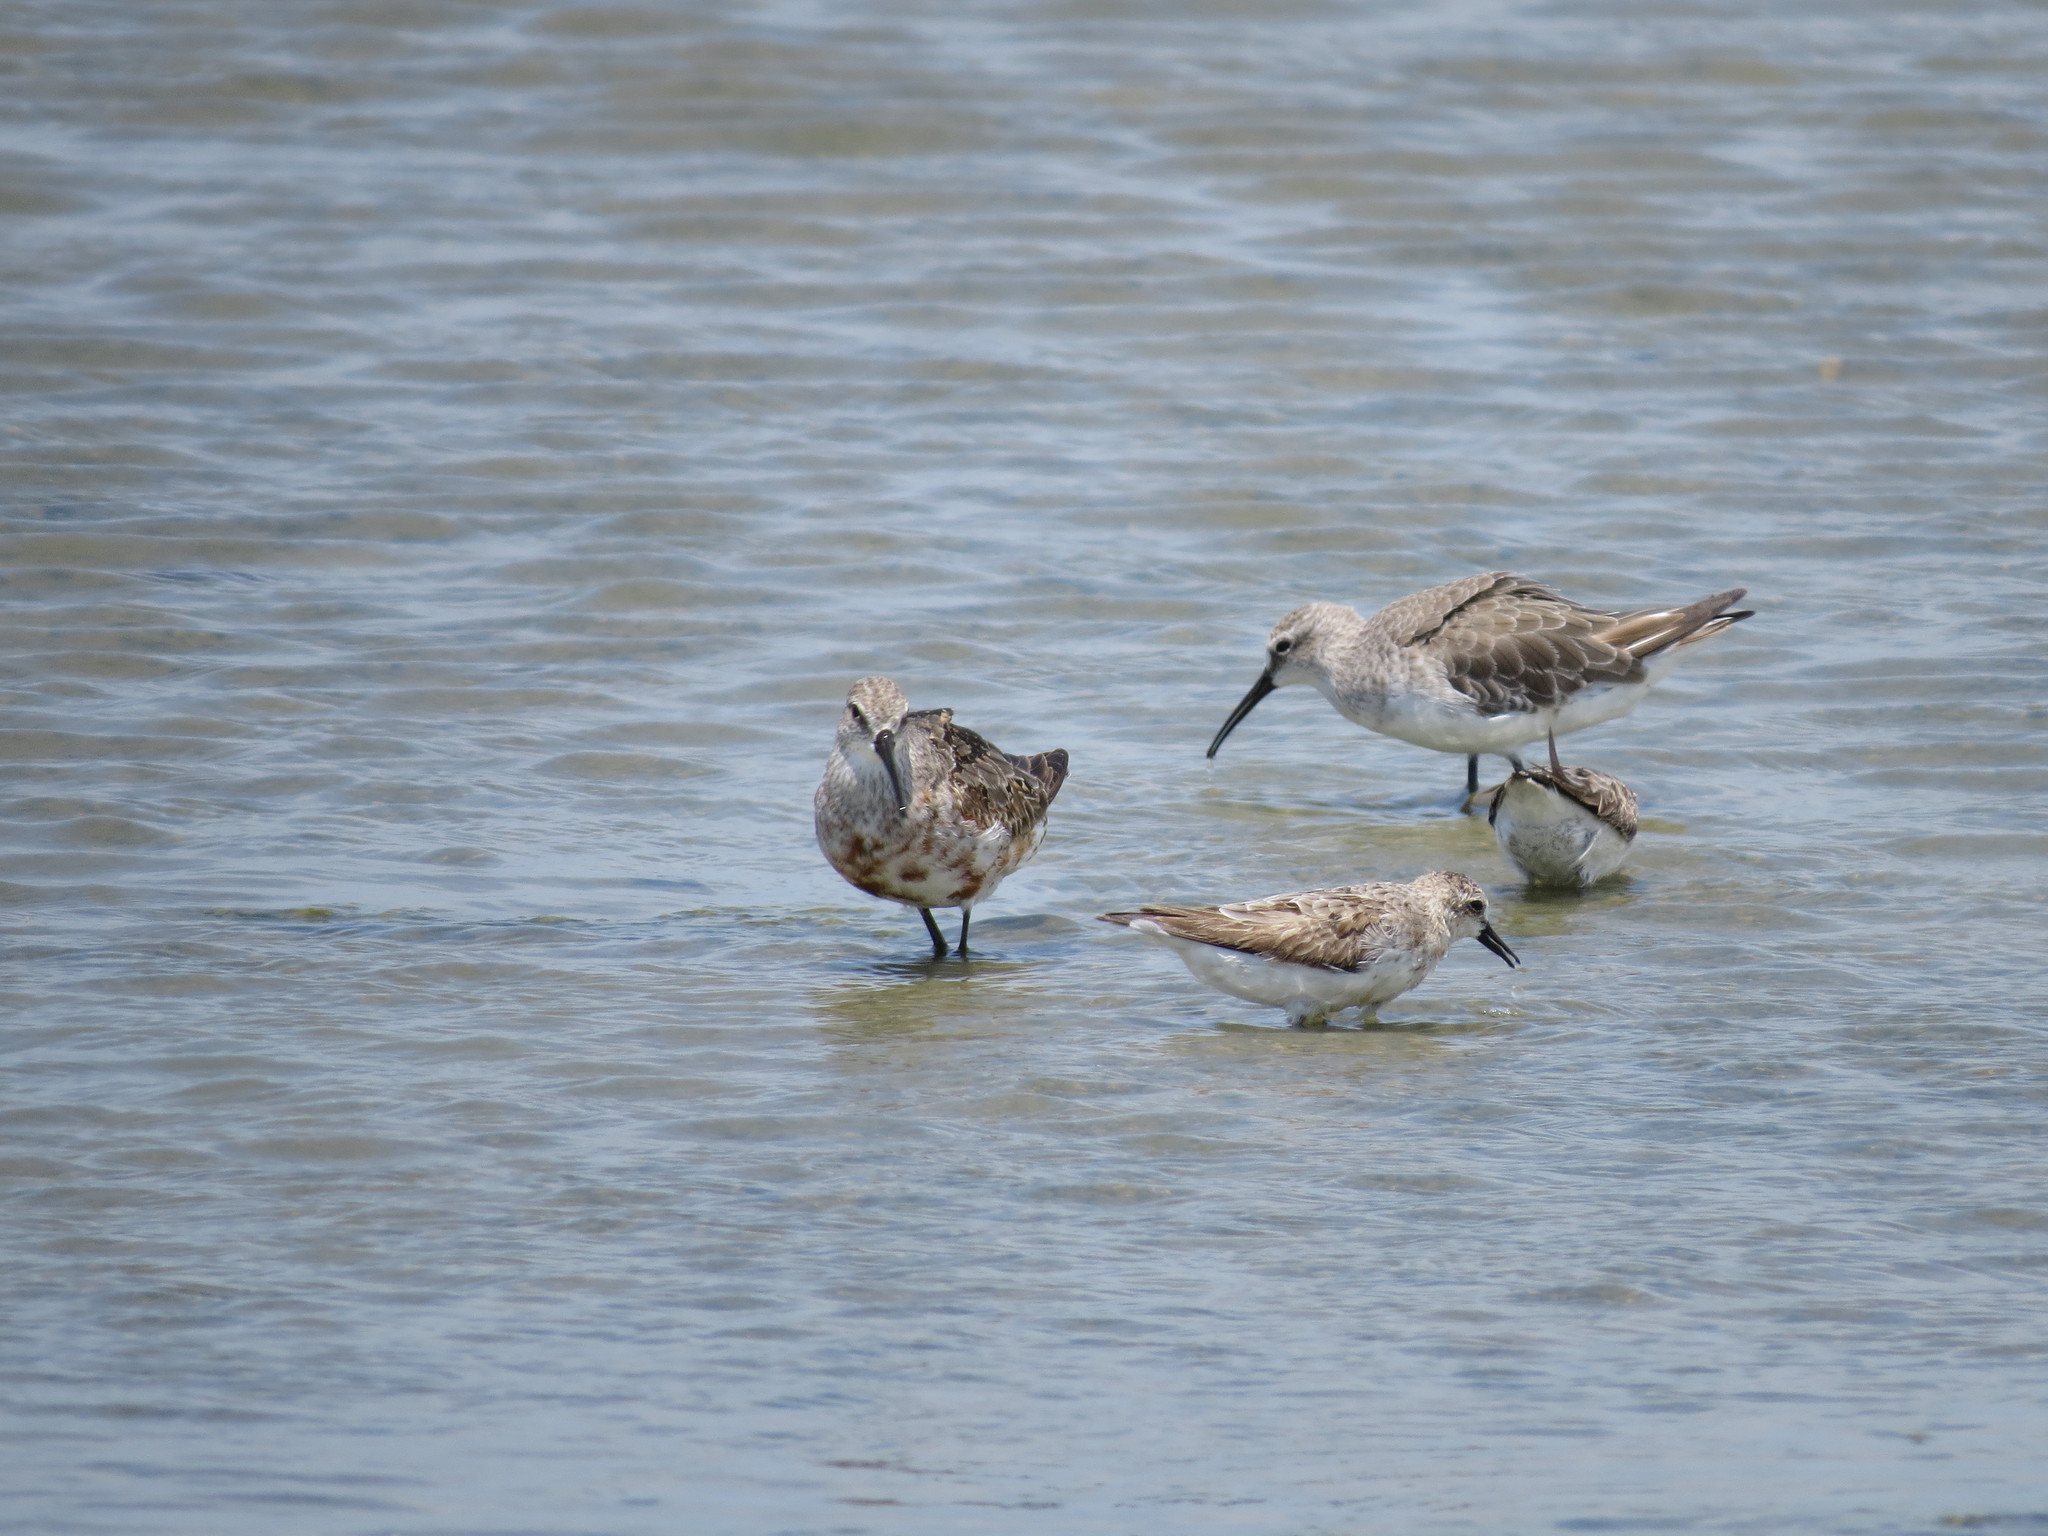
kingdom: Animalia
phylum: Chordata
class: Aves
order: Charadriiformes
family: Scolopacidae
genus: Calidris
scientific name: Calidris ferruginea
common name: Curlew sandpiper
